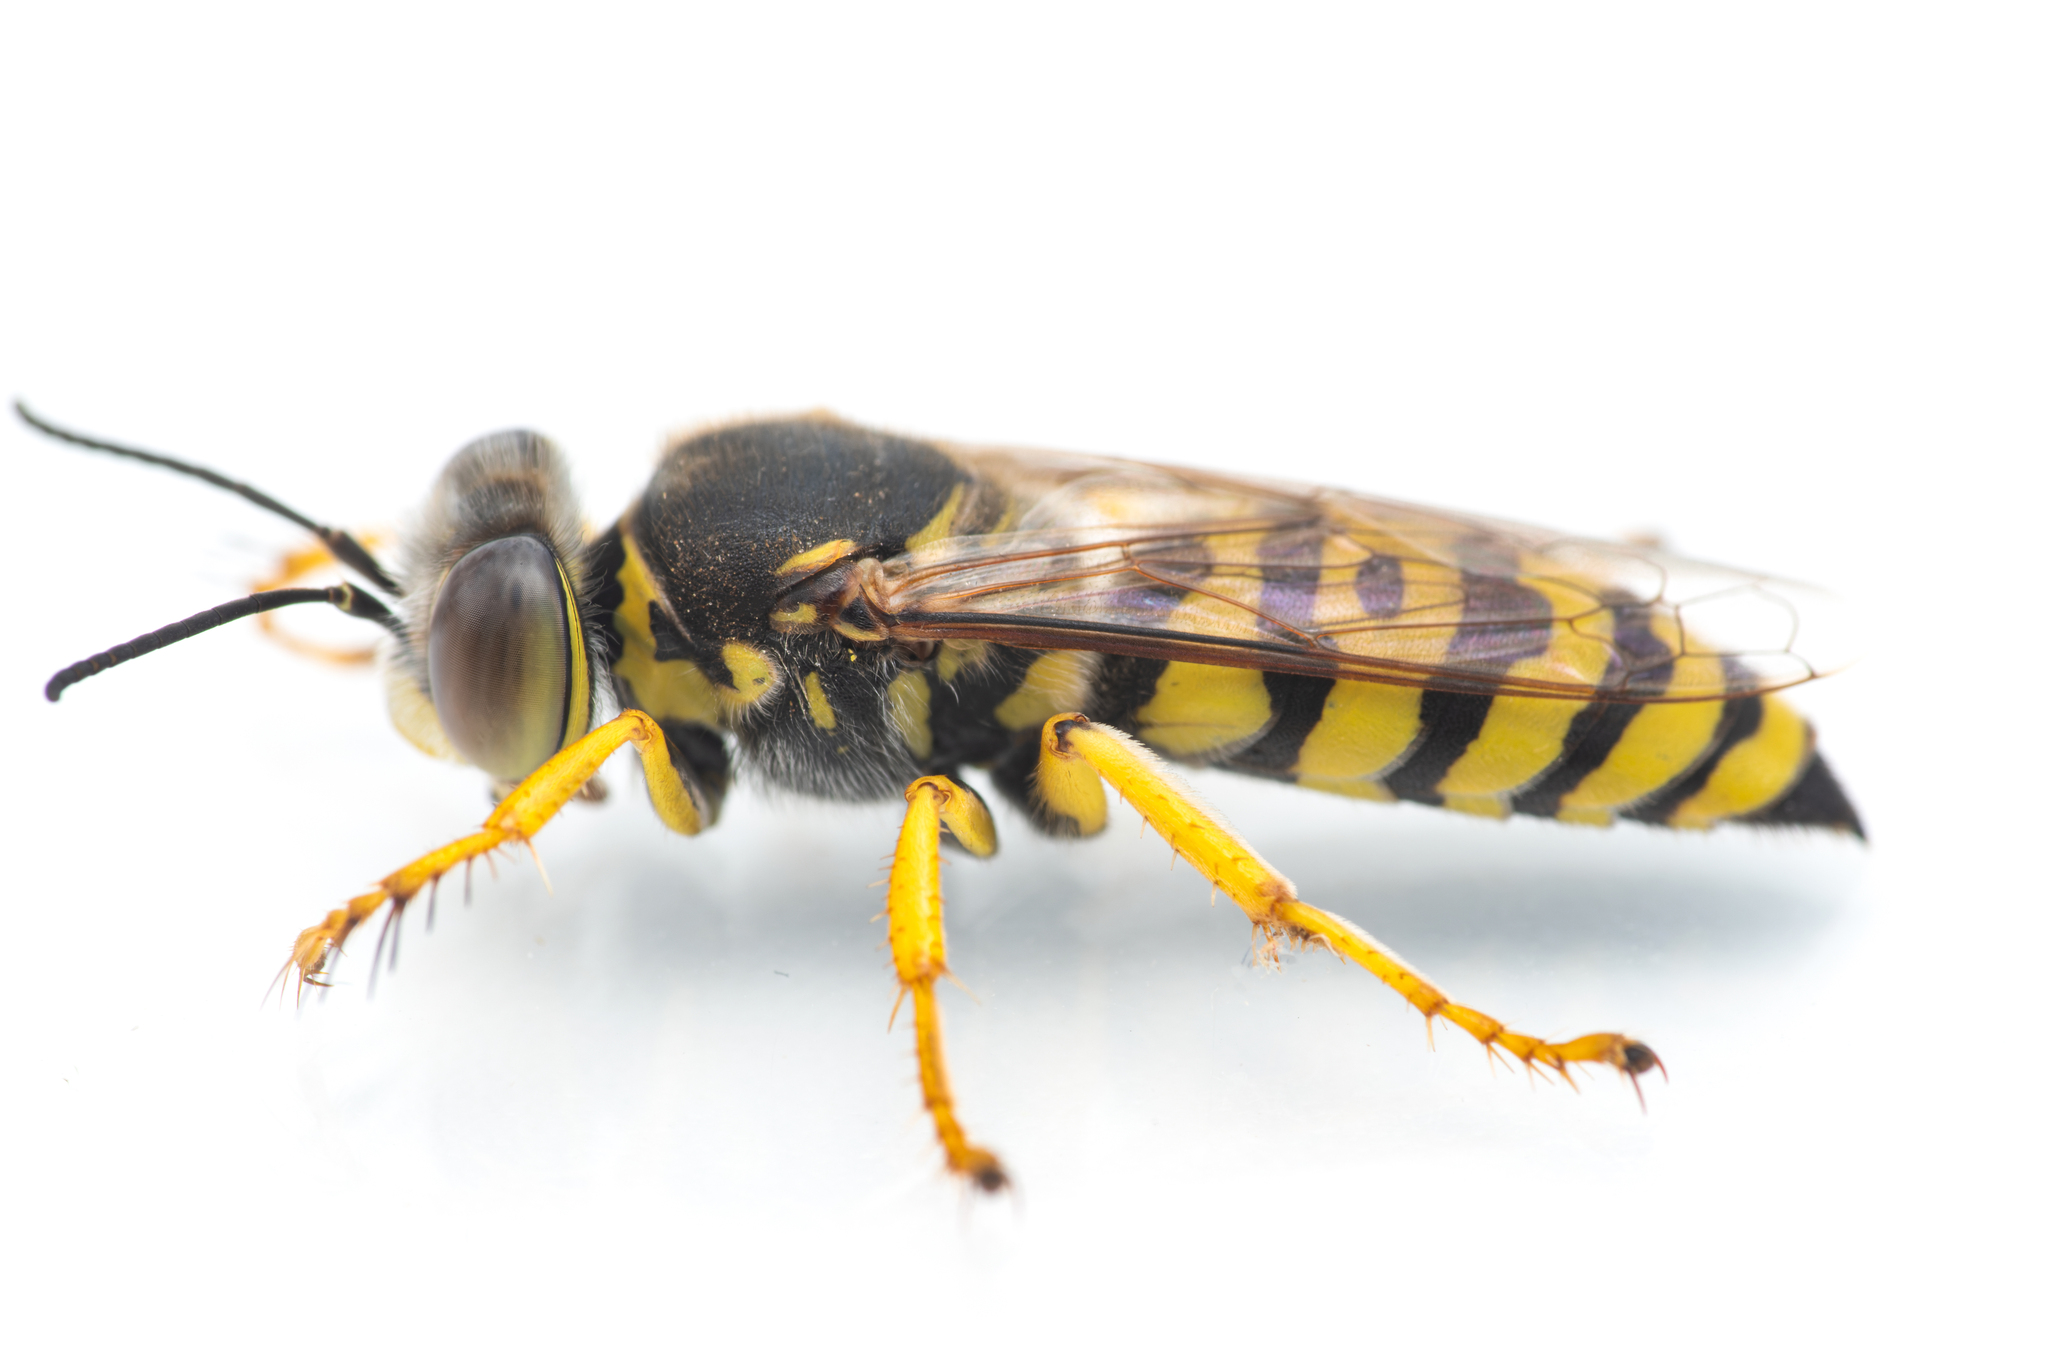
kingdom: Animalia
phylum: Arthropoda
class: Insecta
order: Hymenoptera
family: Crabronidae
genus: Bembix
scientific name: Bembix oculata
